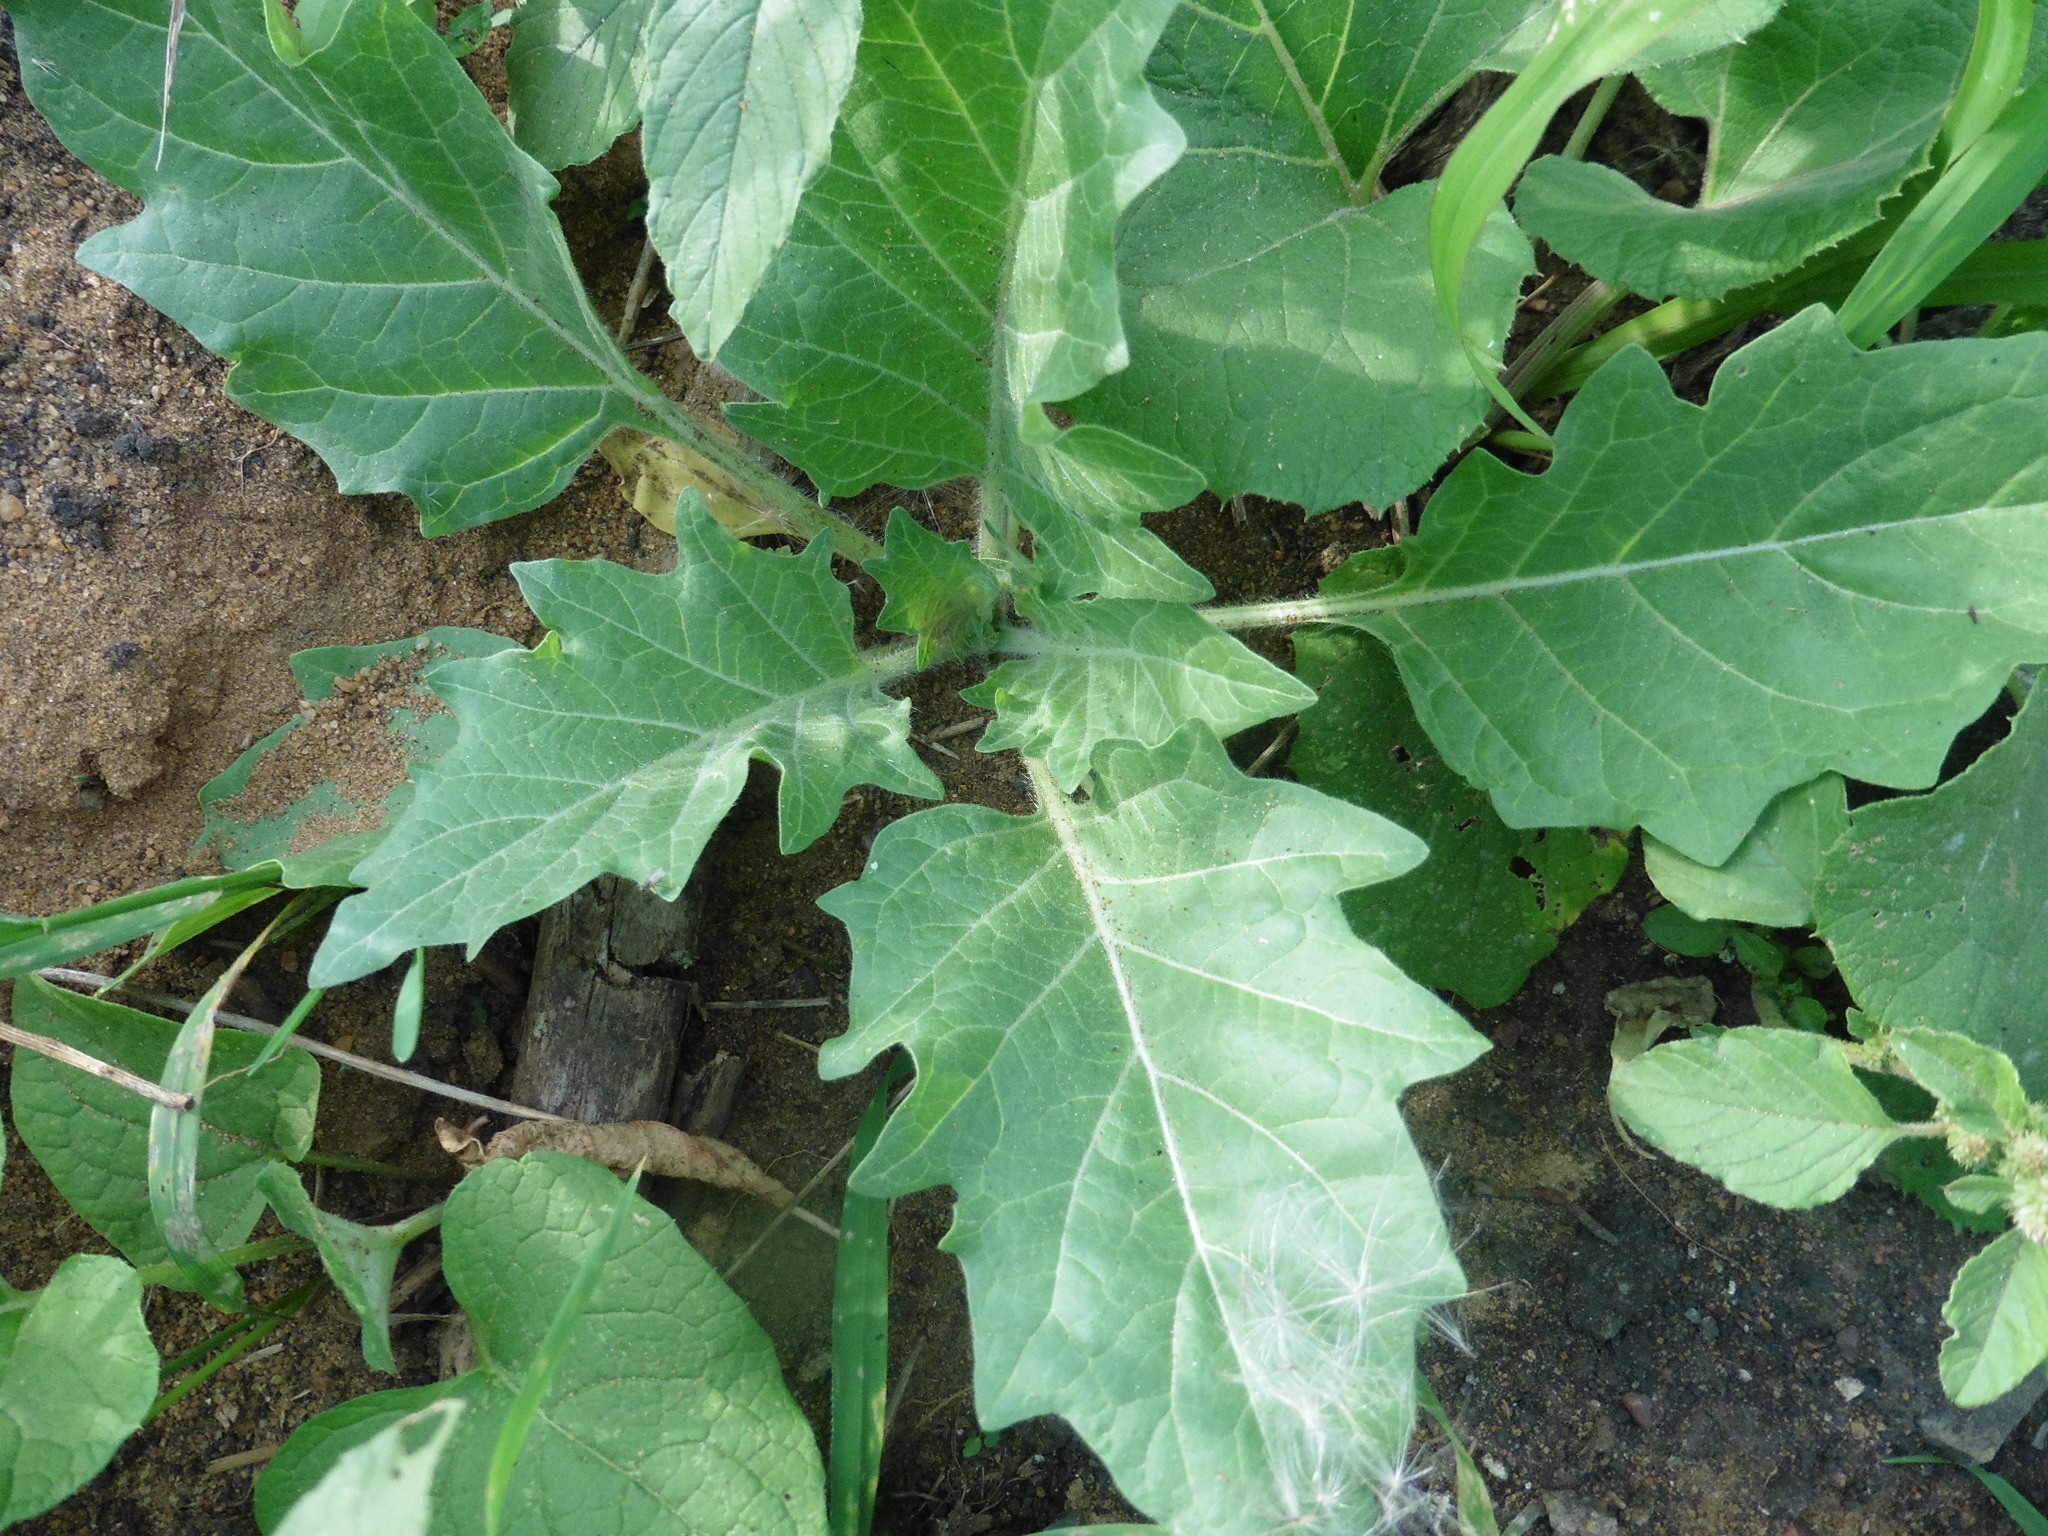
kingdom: Plantae
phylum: Tracheophyta
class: Magnoliopsida
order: Solanales
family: Solanaceae
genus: Hyoscyamus
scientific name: Hyoscyamus niger
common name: Henbane
